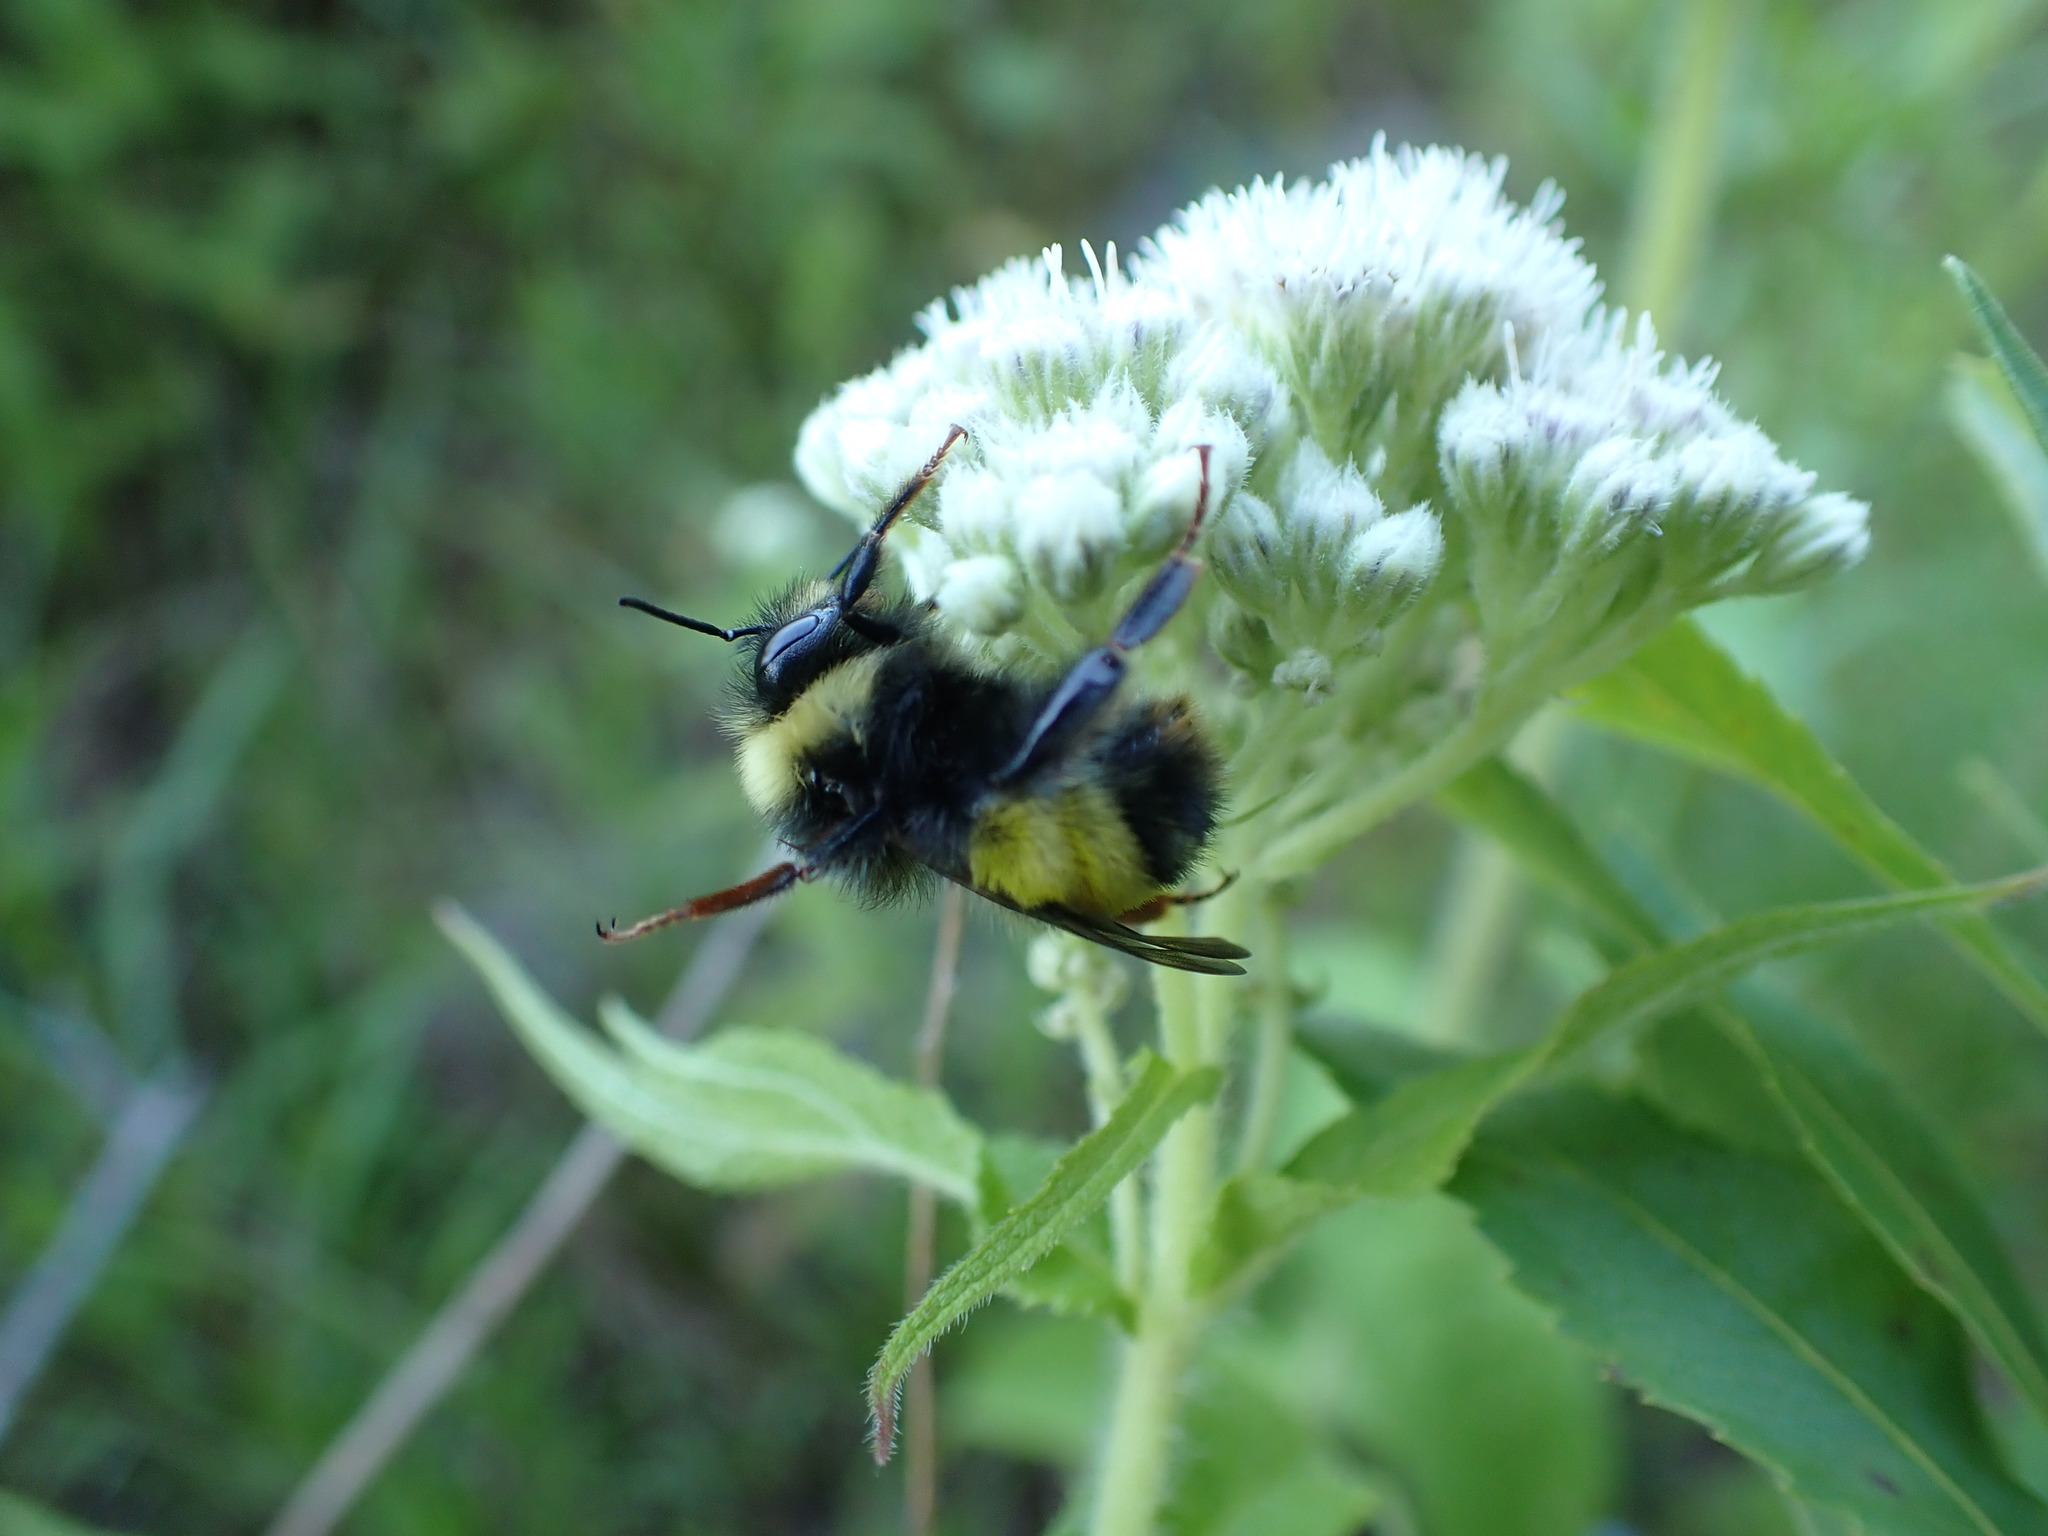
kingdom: Animalia
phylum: Arthropoda
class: Insecta
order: Hymenoptera
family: Apidae
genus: Bombus
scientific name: Bombus terricola
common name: Yellow-banded bumble bee
